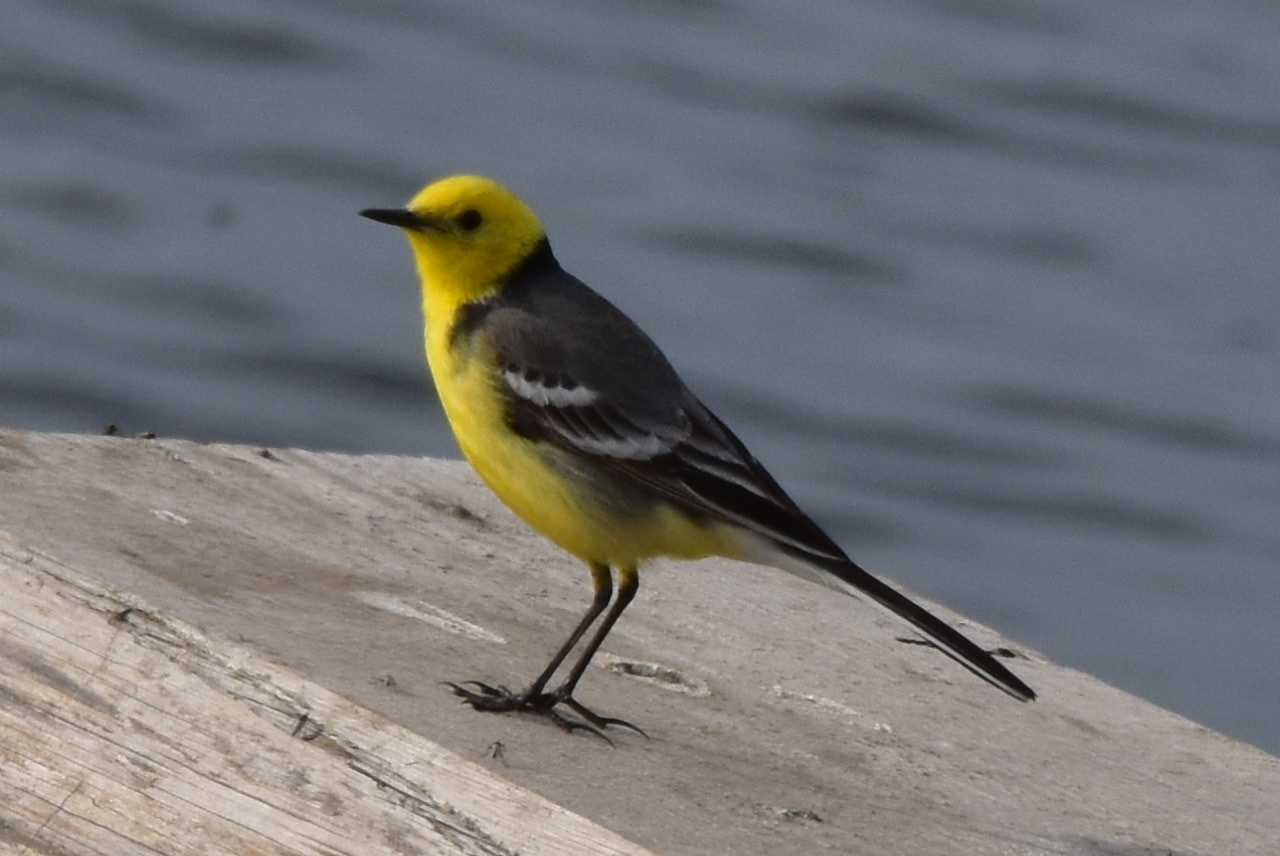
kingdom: Animalia
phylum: Chordata
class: Aves
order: Passeriformes
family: Motacillidae
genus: Motacilla
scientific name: Motacilla citreola
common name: Citrine wagtail
